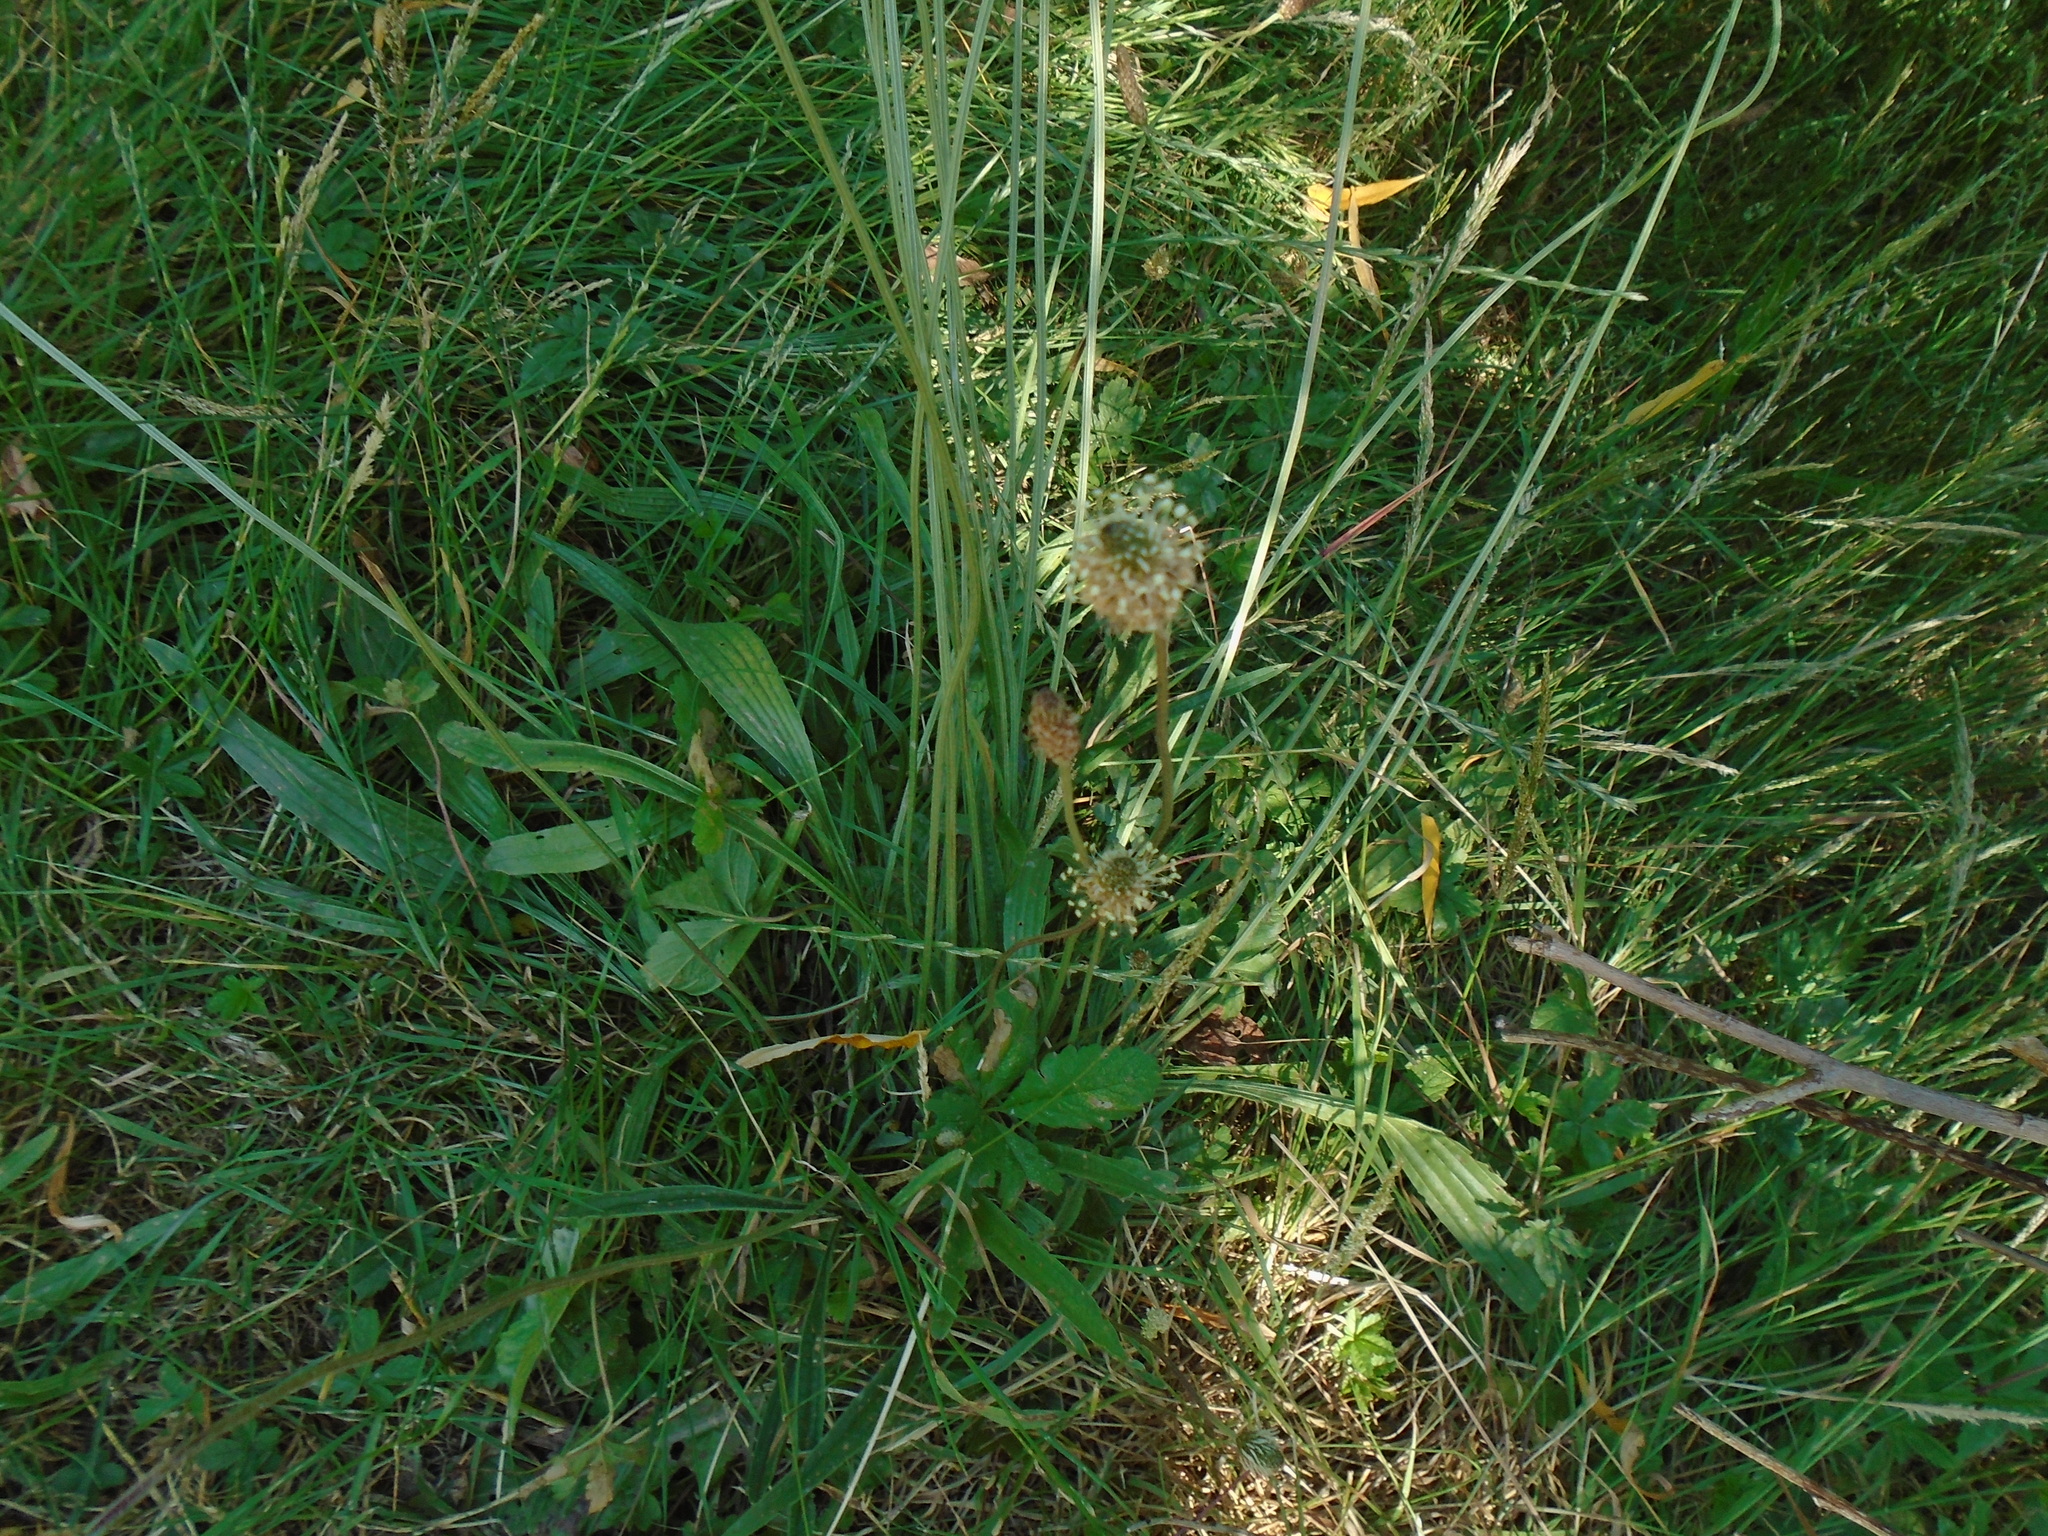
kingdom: Plantae
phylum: Tracheophyta
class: Magnoliopsida
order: Lamiales
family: Plantaginaceae
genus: Plantago
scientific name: Plantago lanceolata
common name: Ribwort plantain
